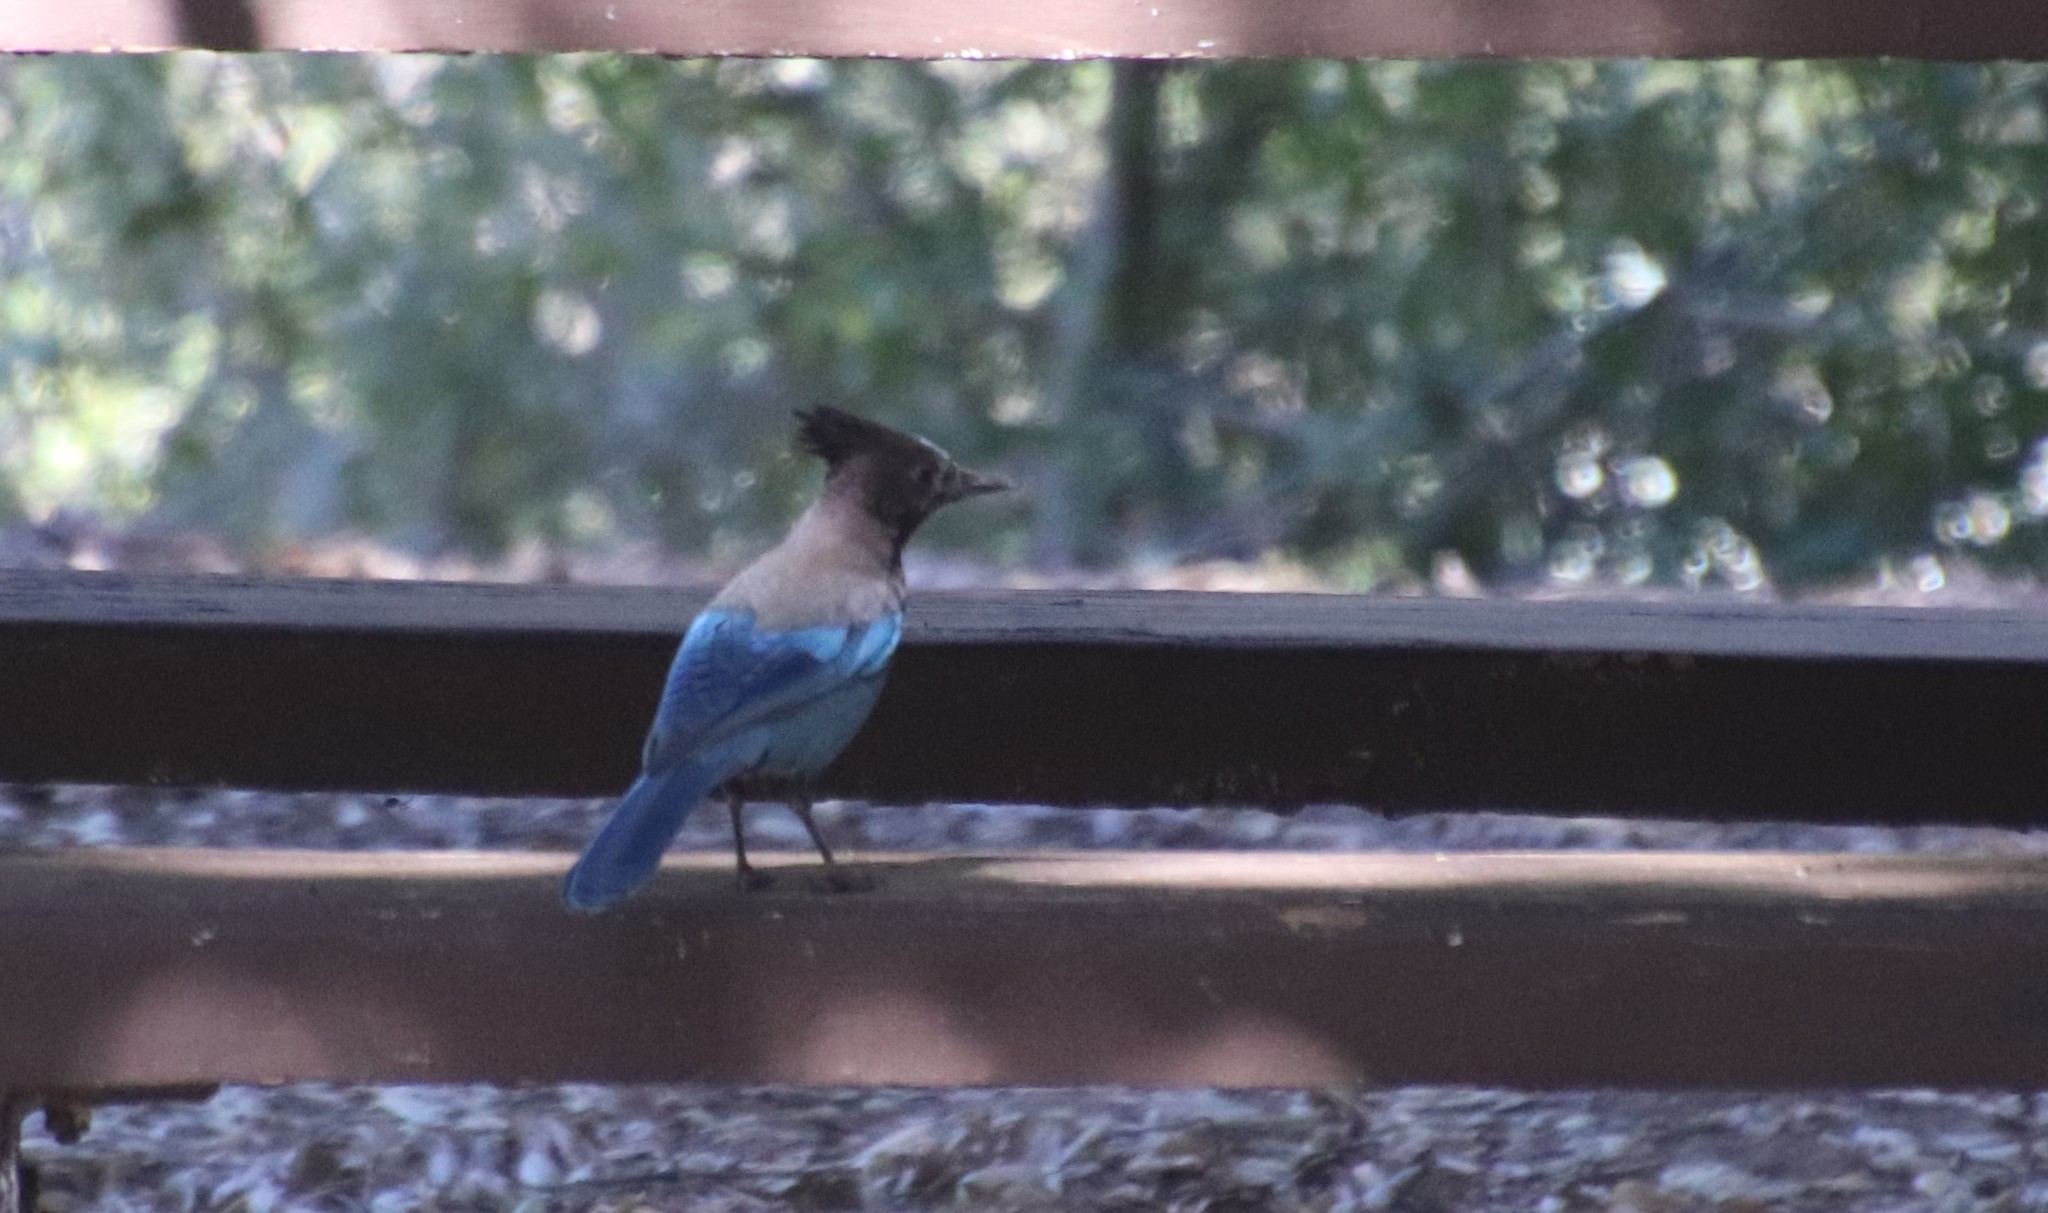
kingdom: Animalia
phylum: Chordata
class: Aves
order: Passeriformes
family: Corvidae
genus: Cyanocitta
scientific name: Cyanocitta stelleri
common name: Steller's jay
